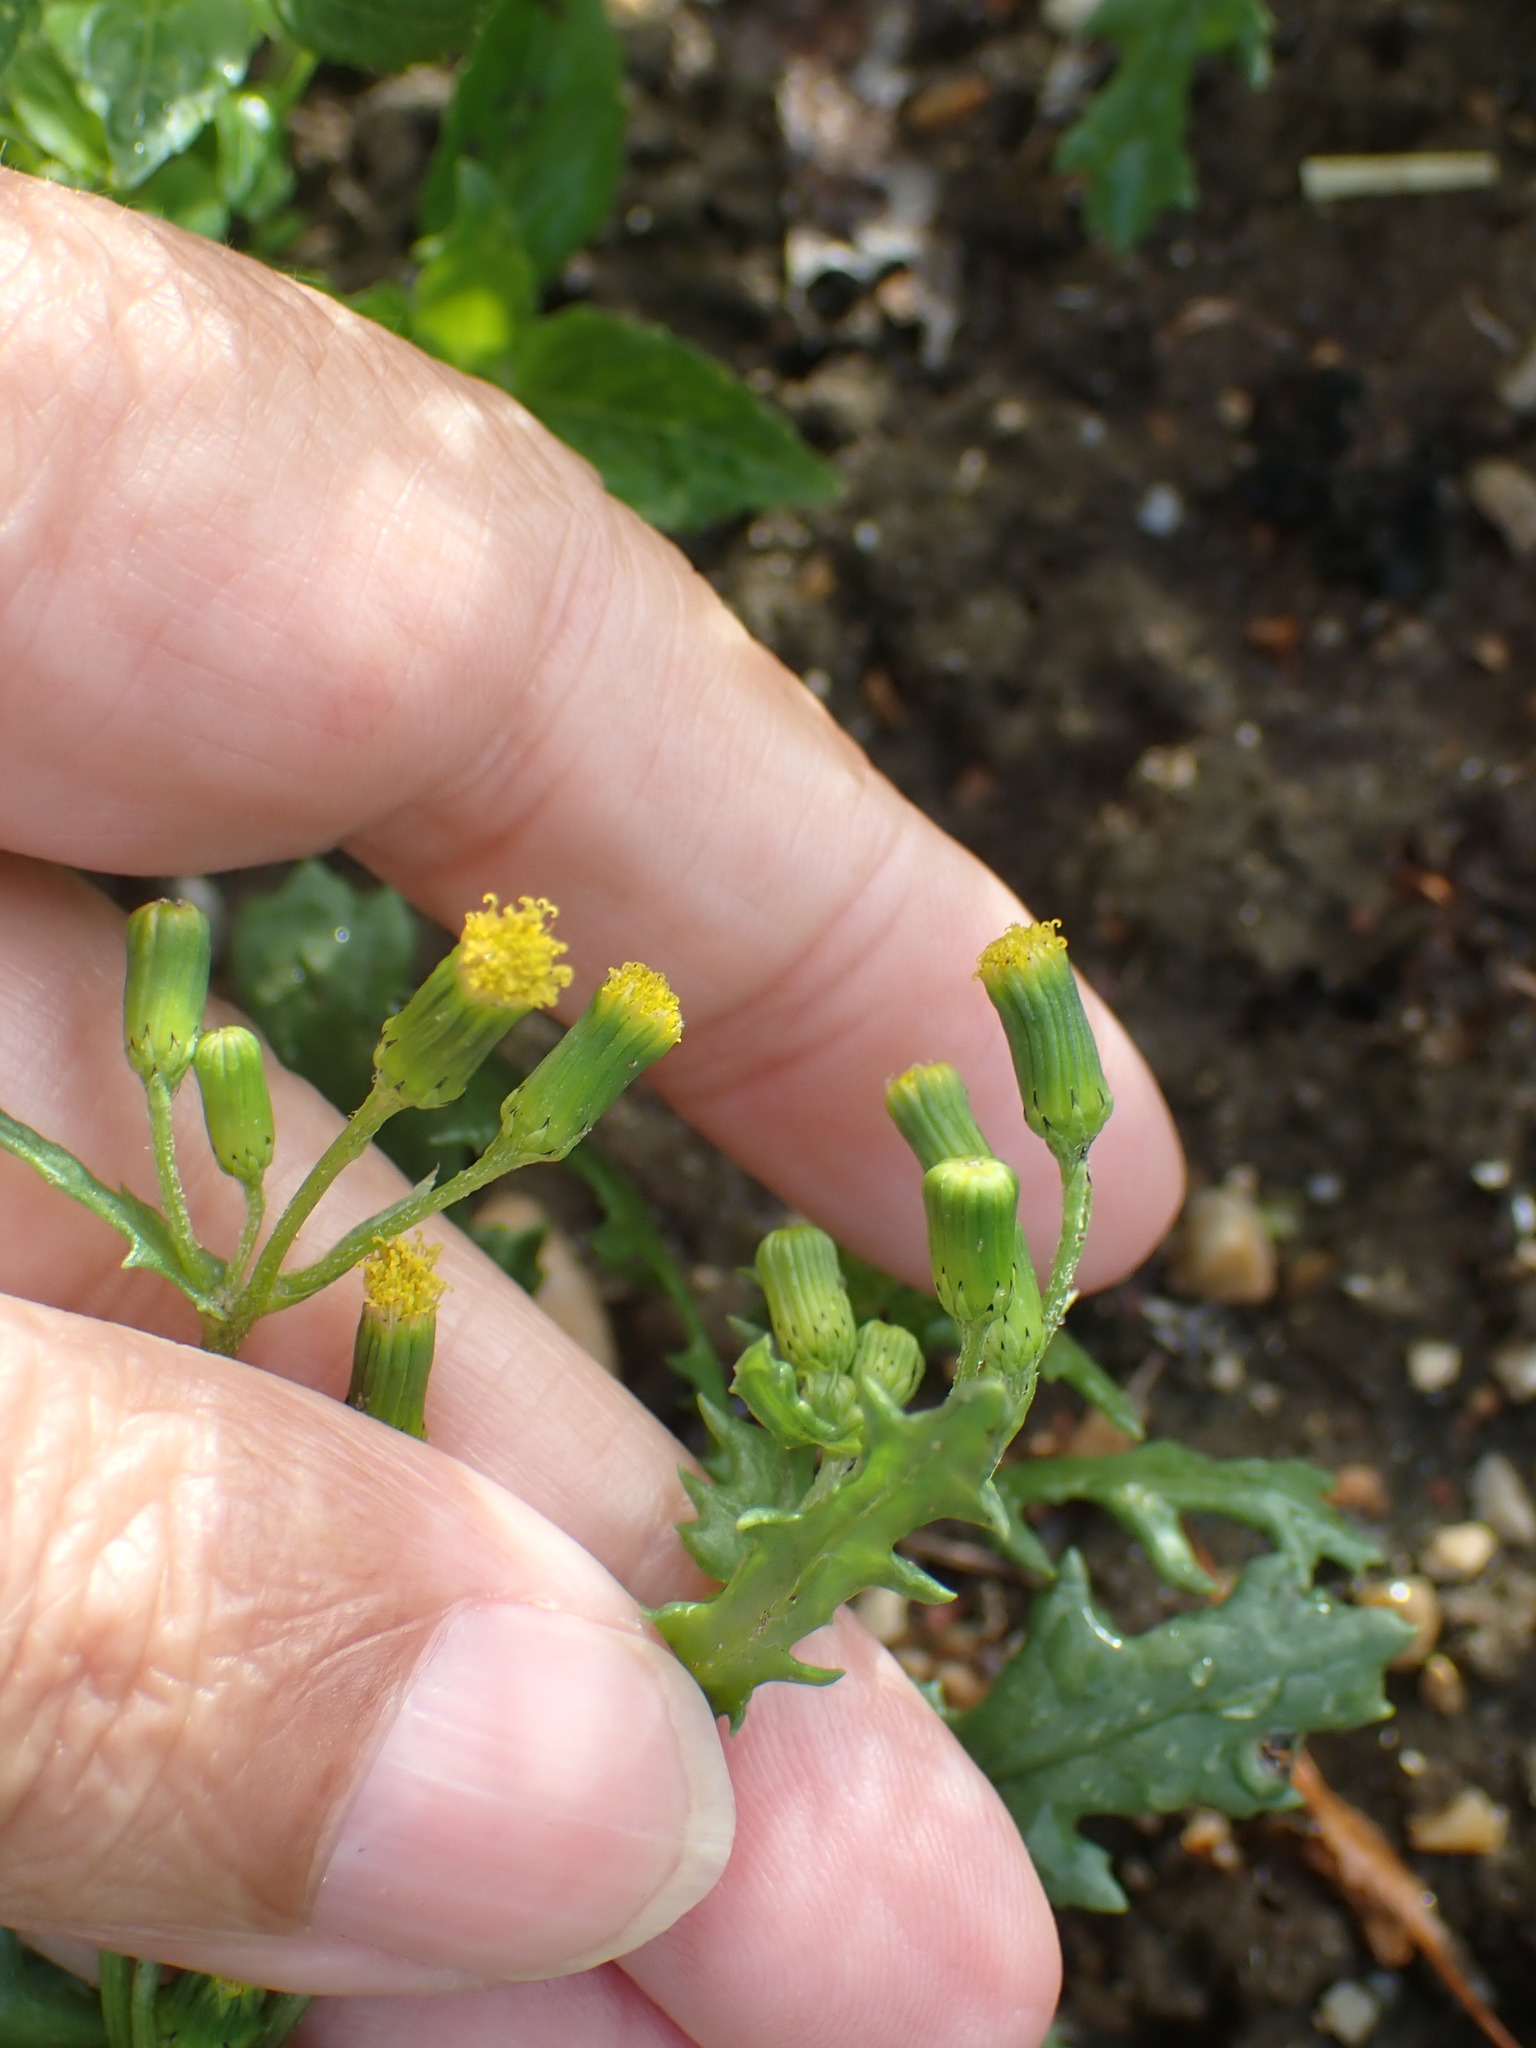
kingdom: Plantae
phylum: Tracheophyta
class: Magnoliopsida
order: Asterales
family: Asteraceae
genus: Senecio
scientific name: Senecio vulgaris
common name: Old-man-in-the-spring
